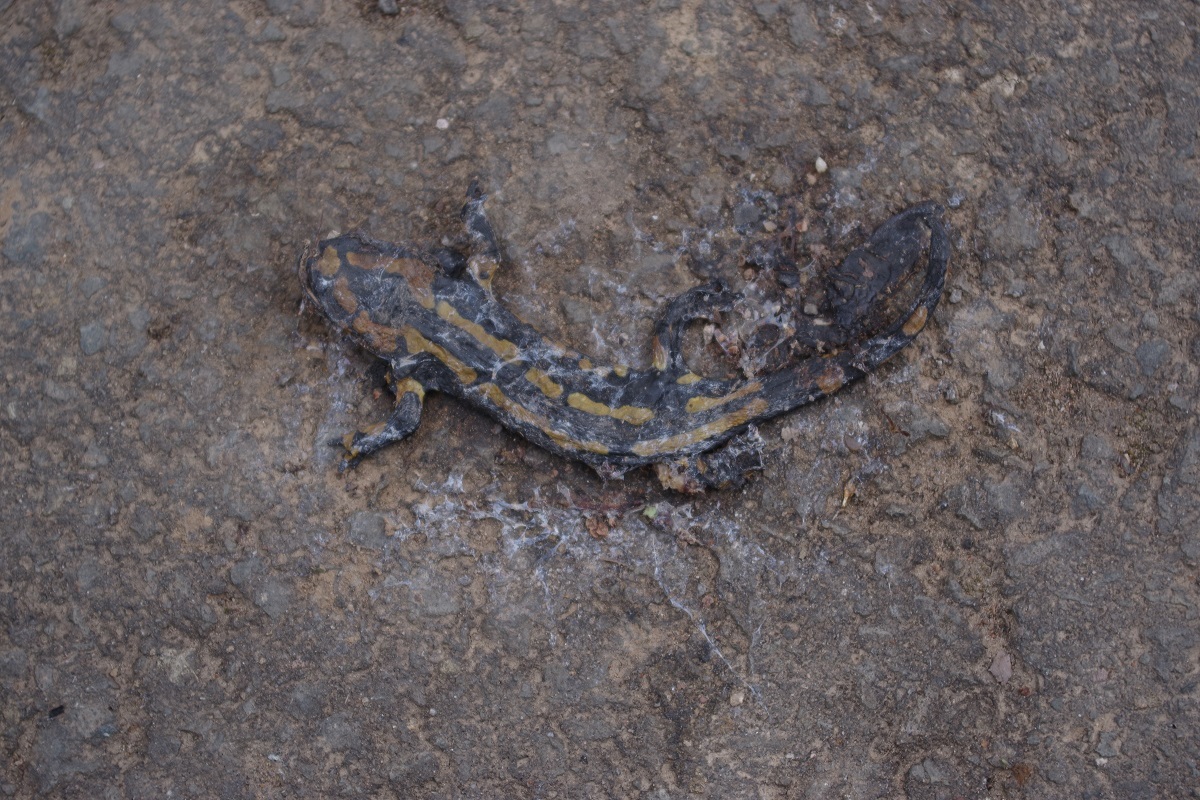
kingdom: Animalia
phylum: Chordata
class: Amphibia
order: Caudata
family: Salamandridae
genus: Salamandra
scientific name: Salamandra salamandra
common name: Fire salamander
